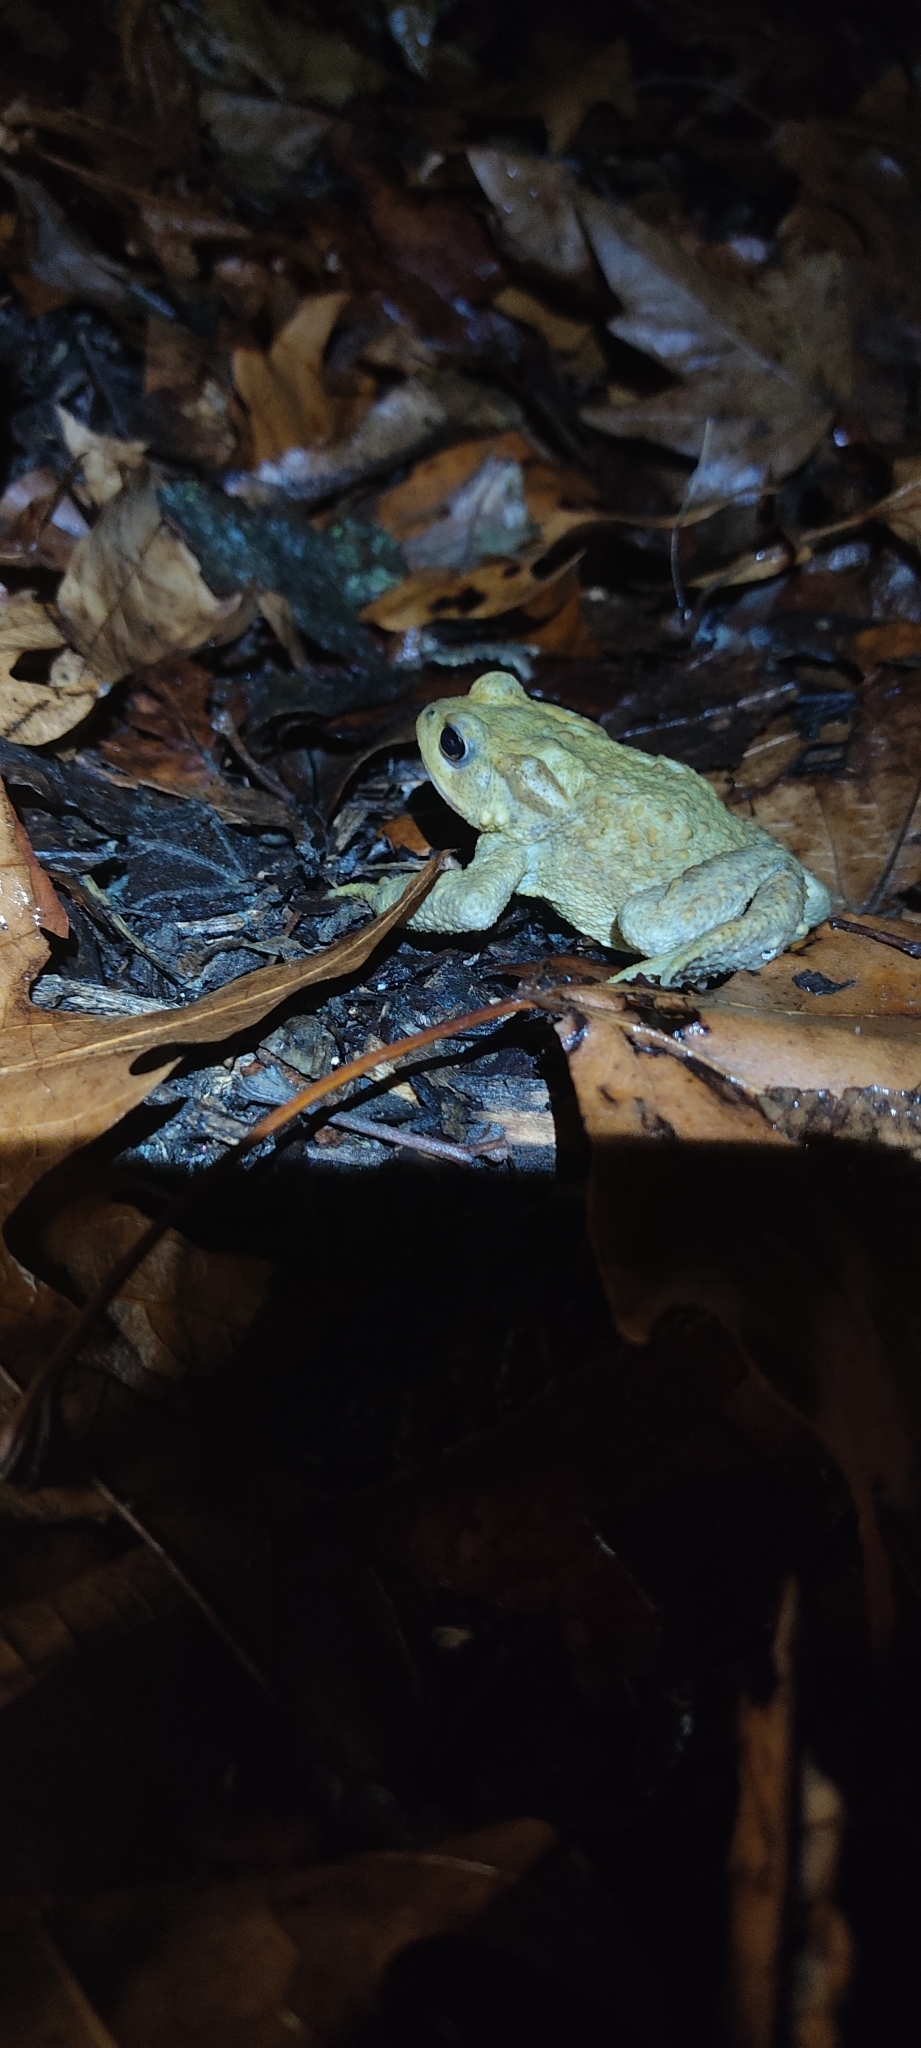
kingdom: Animalia
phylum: Chordata
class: Amphibia
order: Anura
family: Bufonidae
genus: Bufo
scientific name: Bufo spinosus
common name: Western common toad
